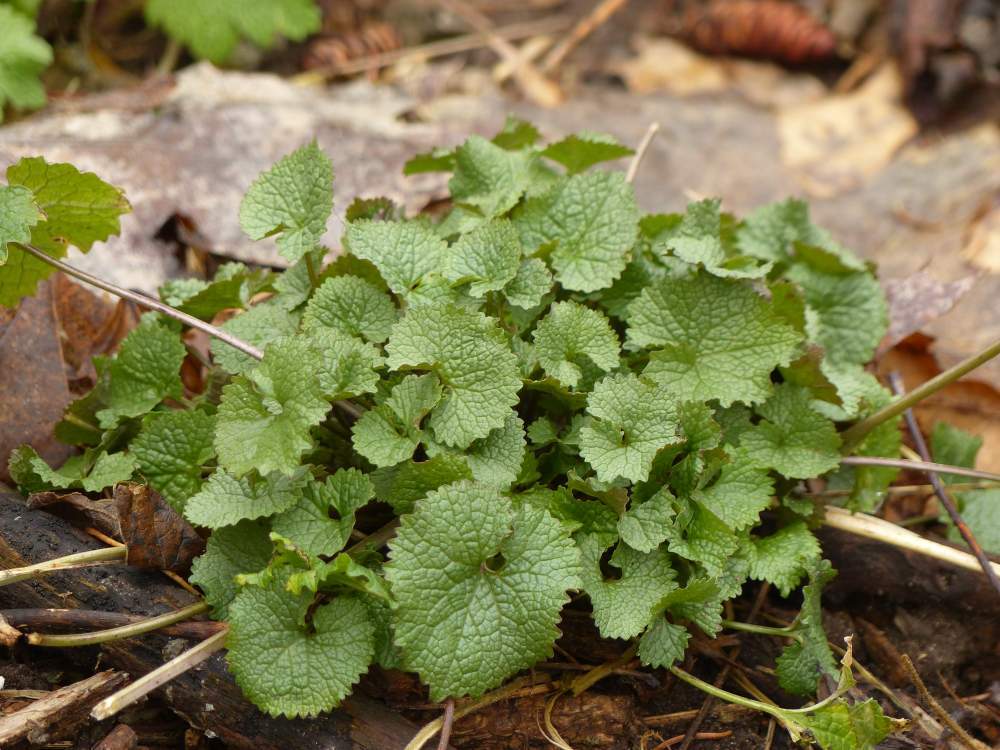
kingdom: Plantae
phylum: Tracheophyta
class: Magnoliopsida
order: Brassicales
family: Brassicaceae
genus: Alliaria
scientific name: Alliaria petiolata
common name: Garlic mustard
